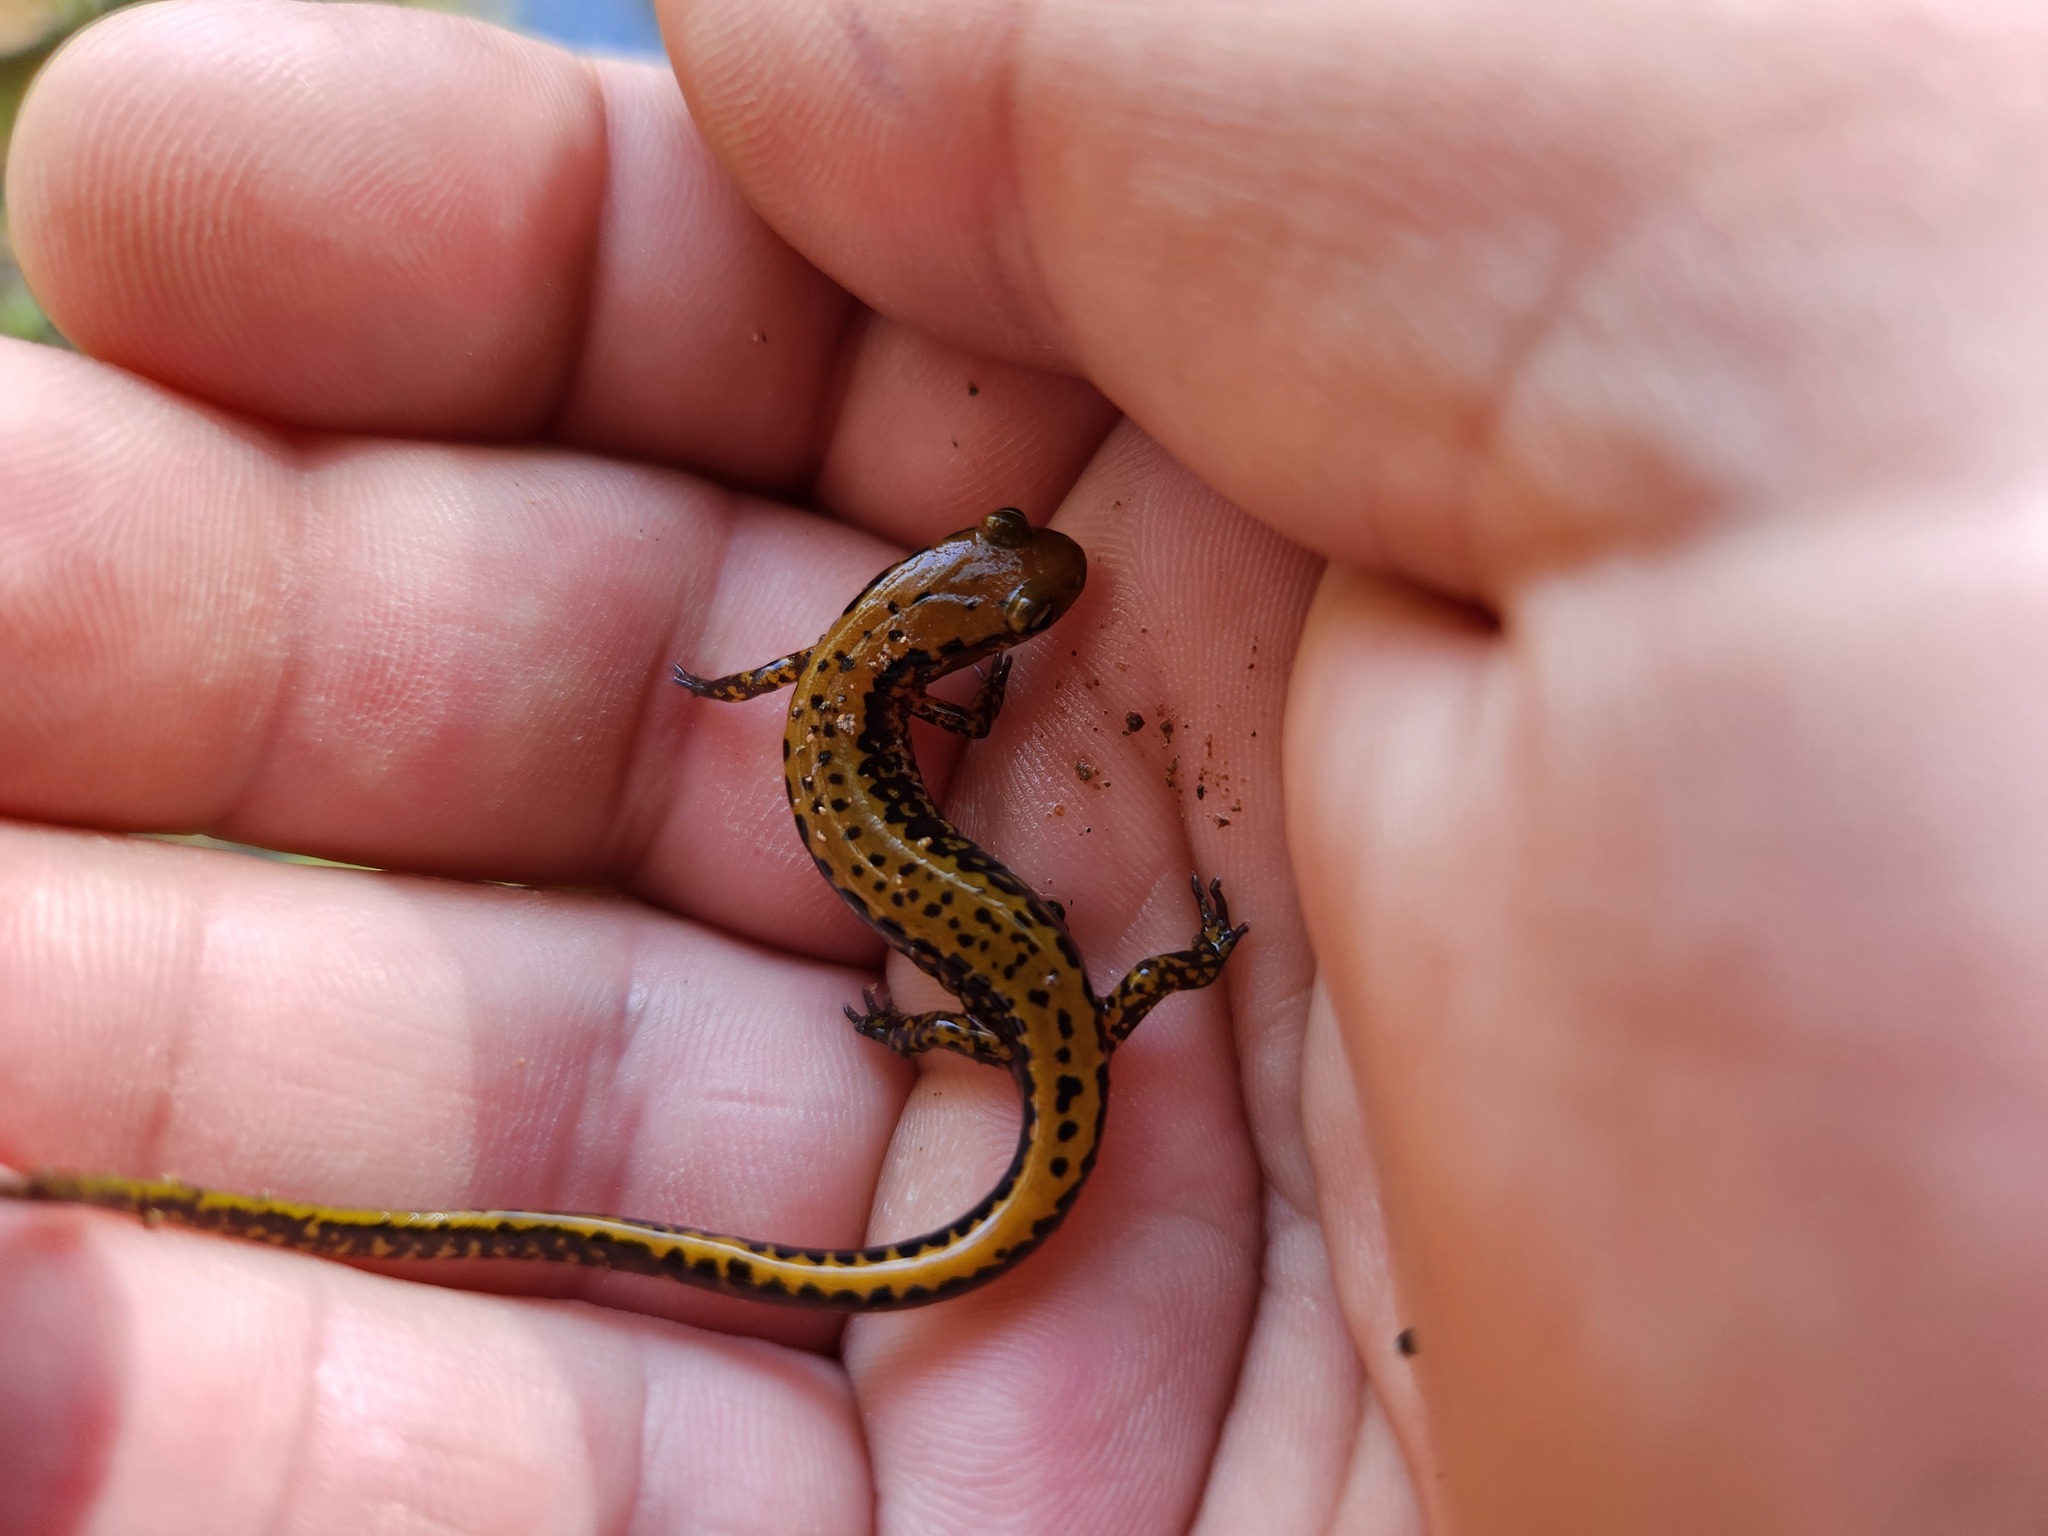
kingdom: Animalia
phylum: Chordata
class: Amphibia
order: Caudata
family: Plethodontidae
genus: Eurycea
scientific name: Eurycea longicauda
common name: Long-tailed salamander
